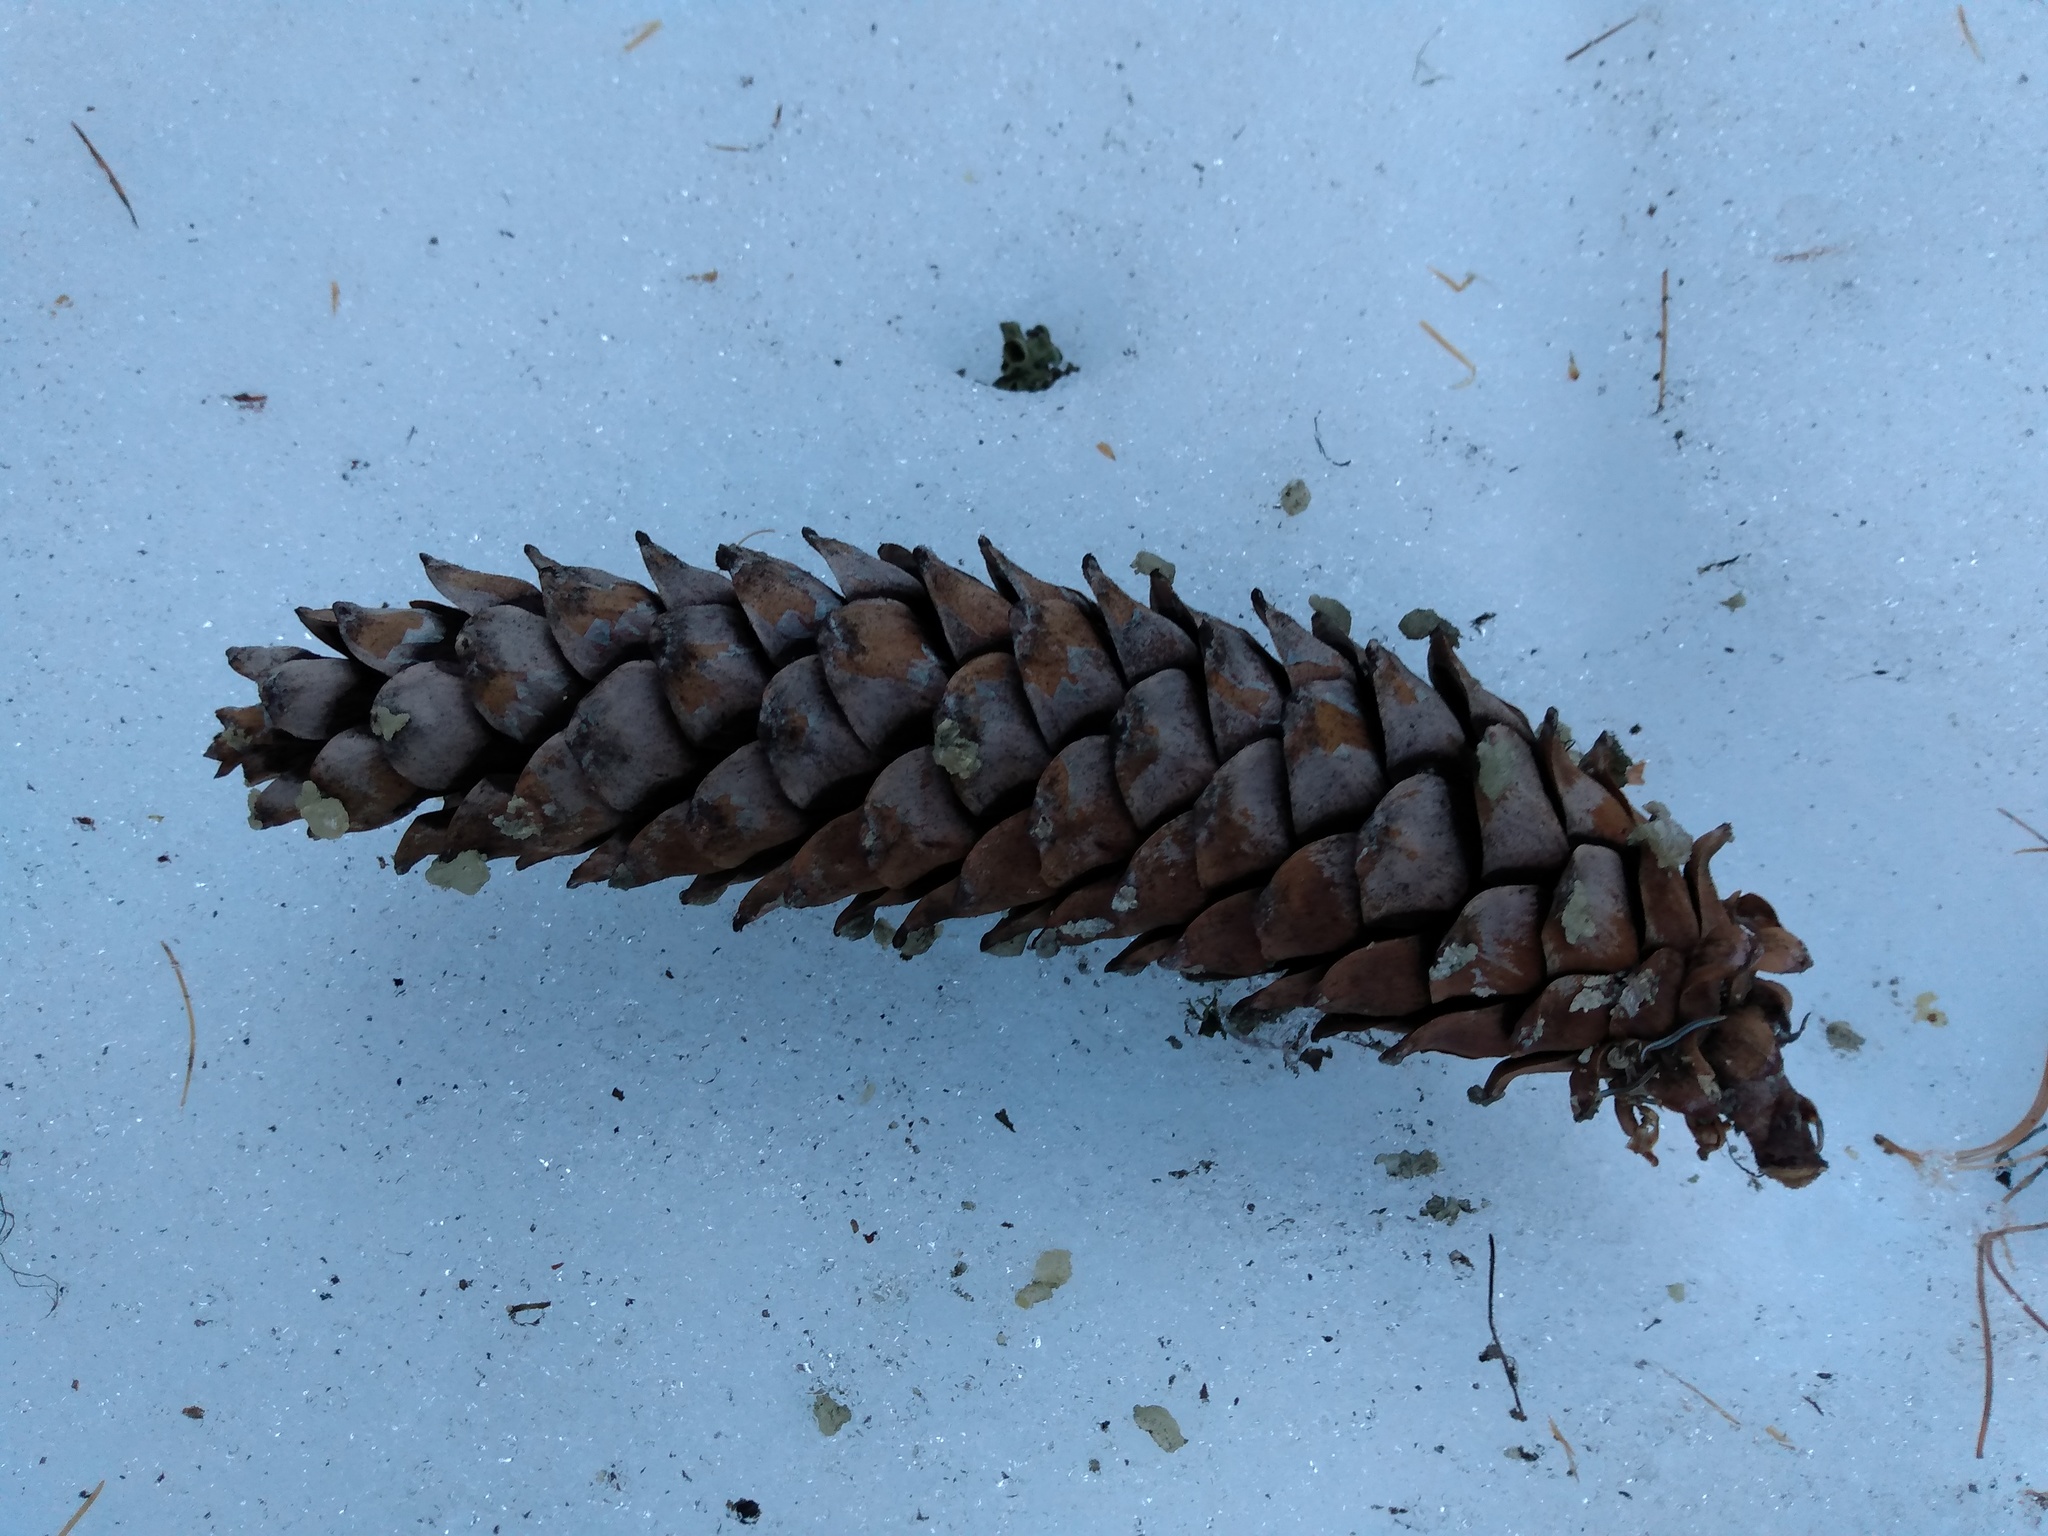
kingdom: Plantae
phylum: Tracheophyta
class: Pinopsida
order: Pinales
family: Pinaceae
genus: Pinus
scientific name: Pinus monticola
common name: Western white pine
